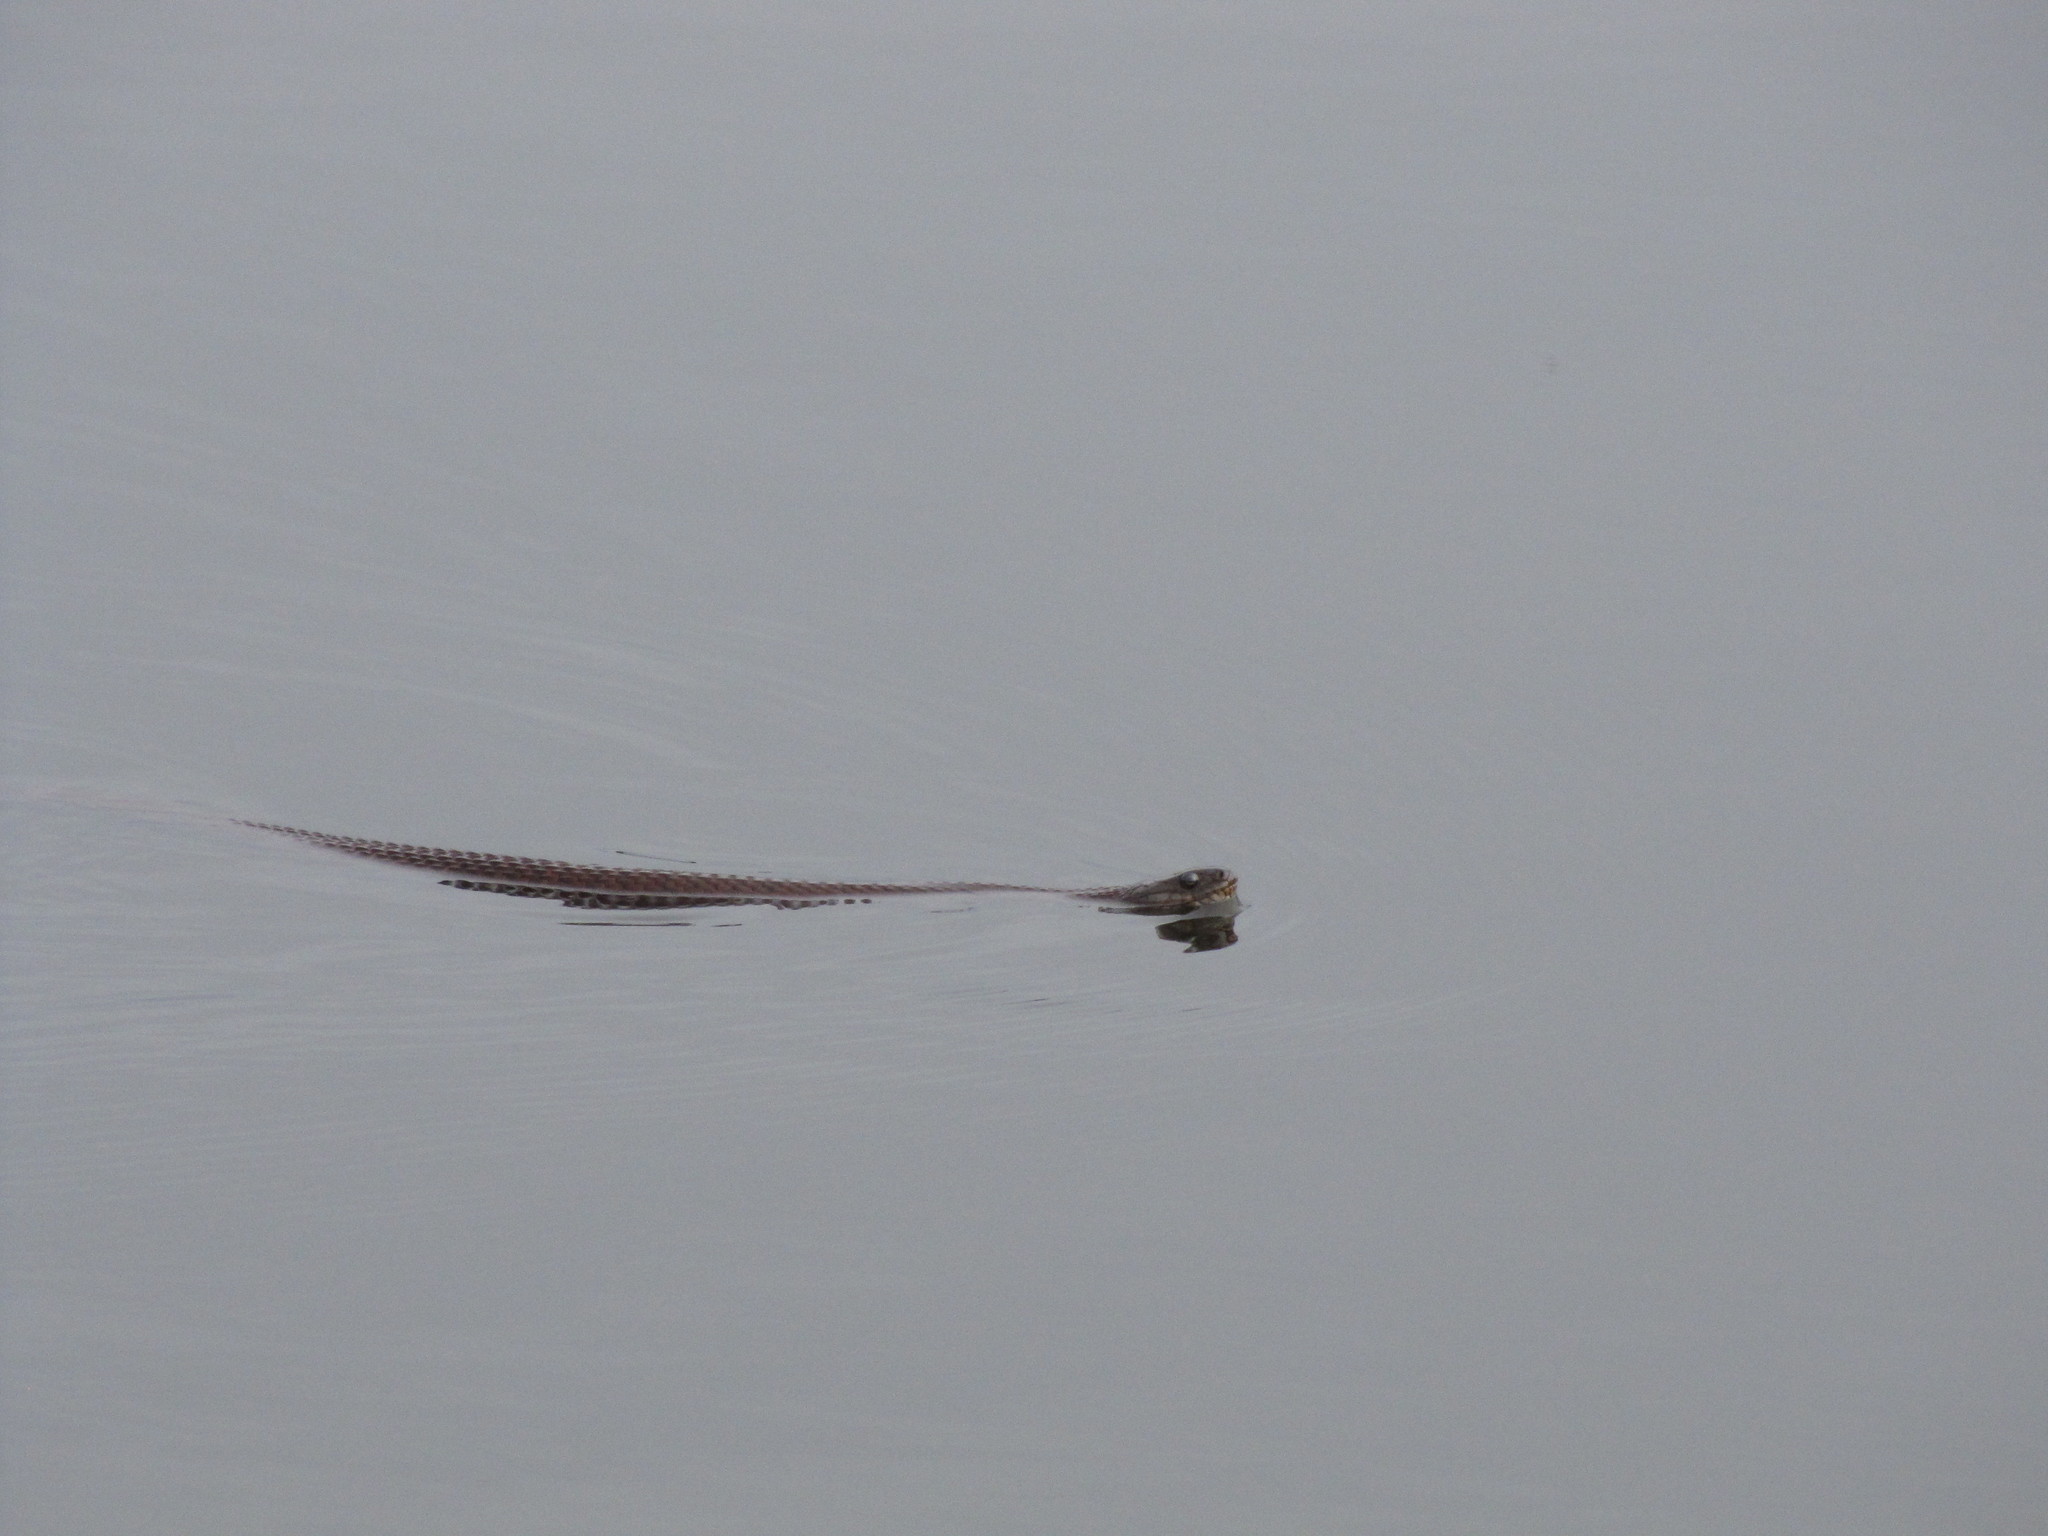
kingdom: Animalia
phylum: Chordata
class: Squamata
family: Colubridae
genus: Nerodia
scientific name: Nerodia sipedon
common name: Northern water snake
